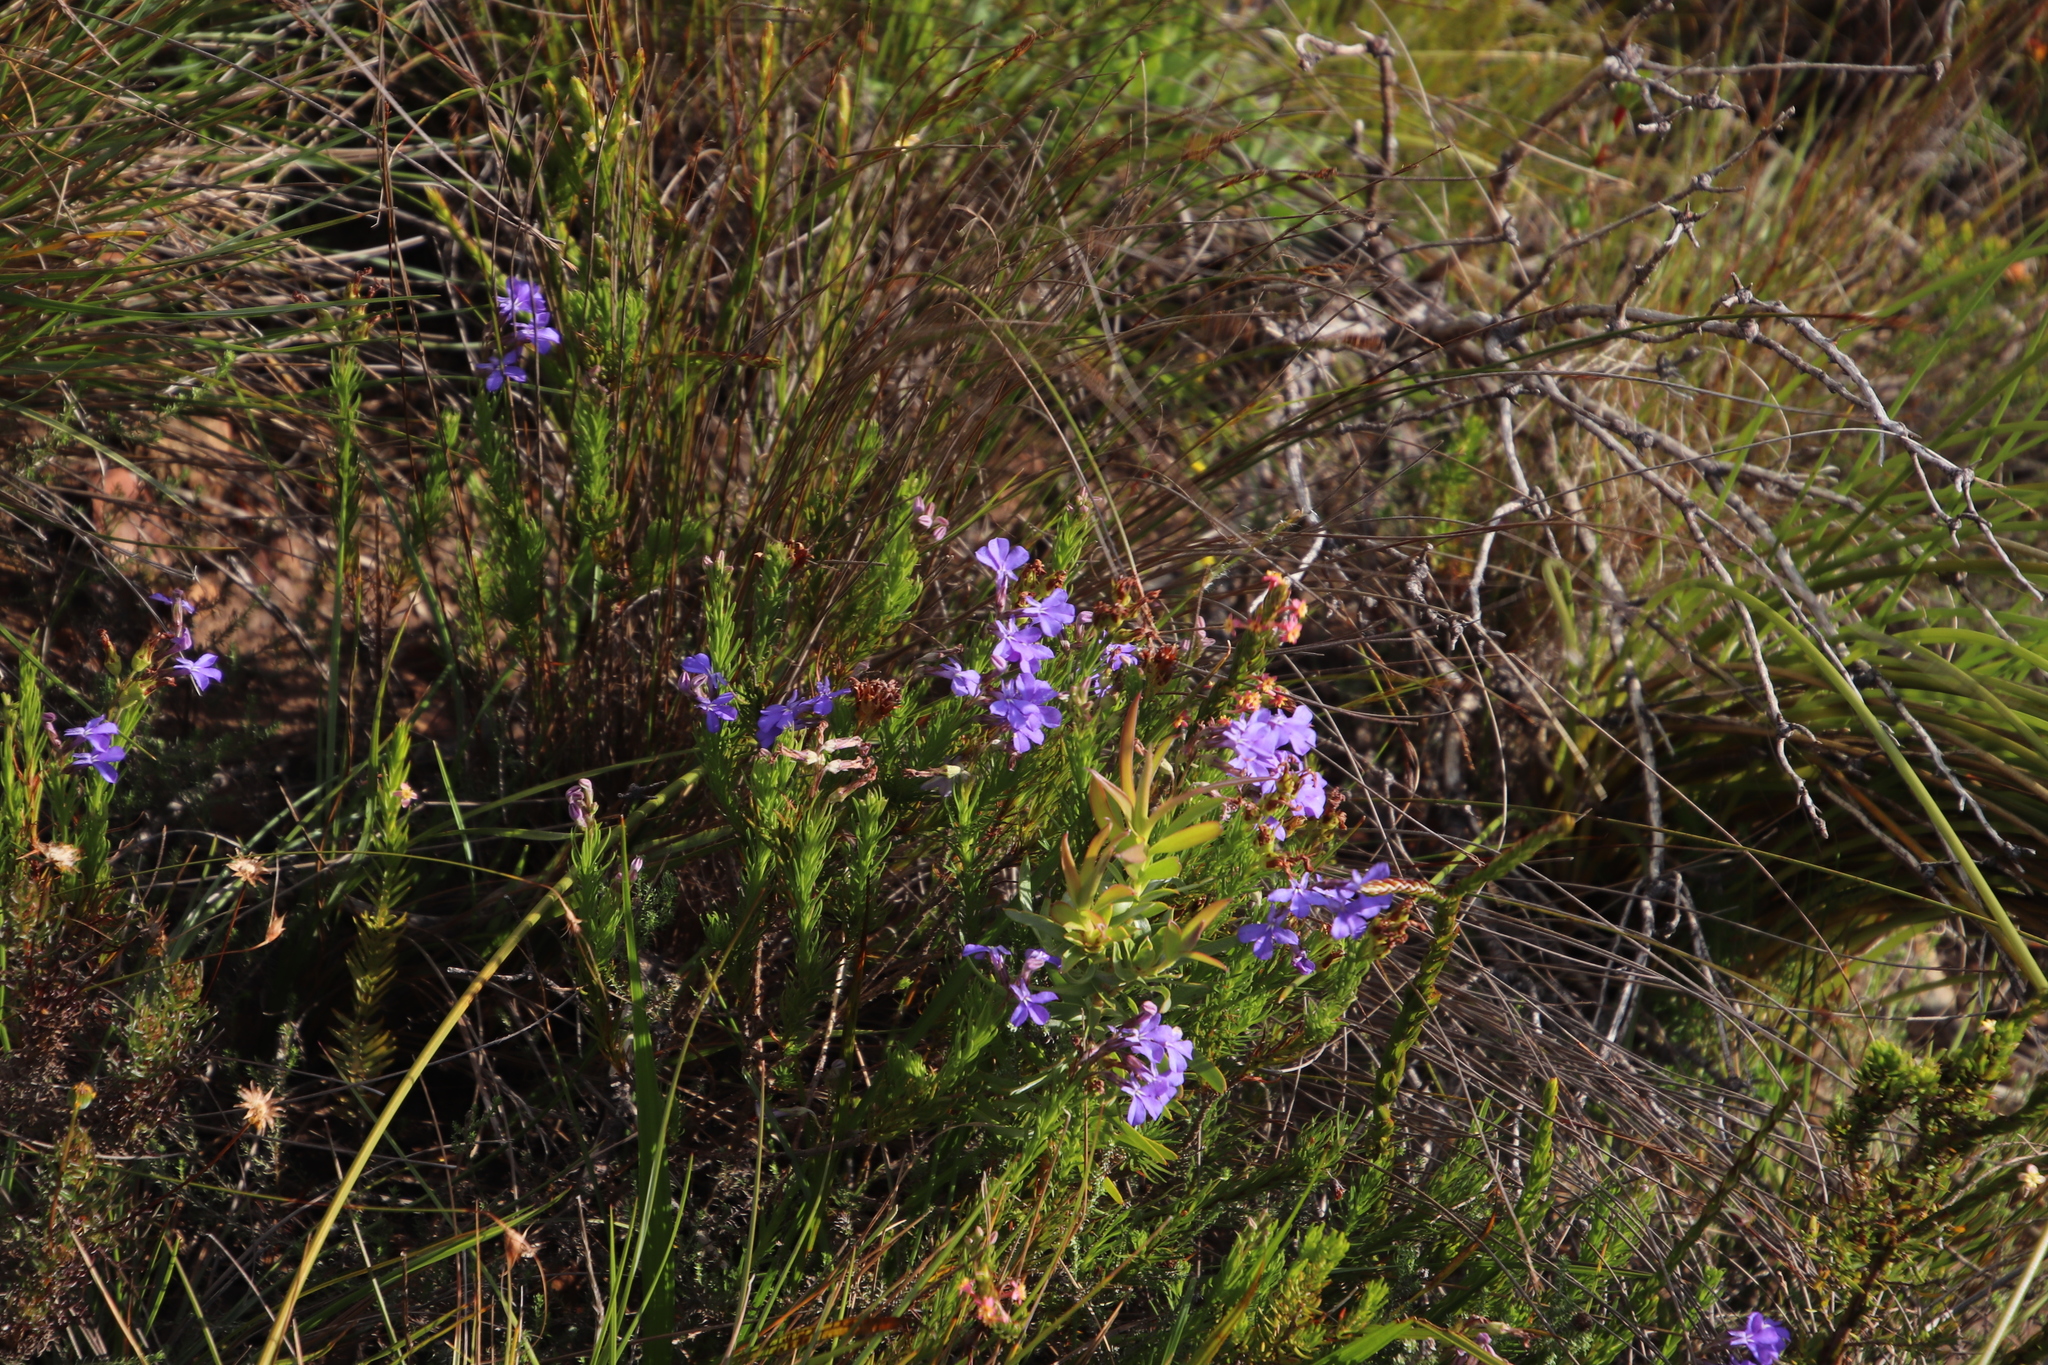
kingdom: Plantae
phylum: Tracheophyta
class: Magnoliopsida
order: Asterales
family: Campanulaceae
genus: Lobelia
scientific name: Lobelia pinifolia
